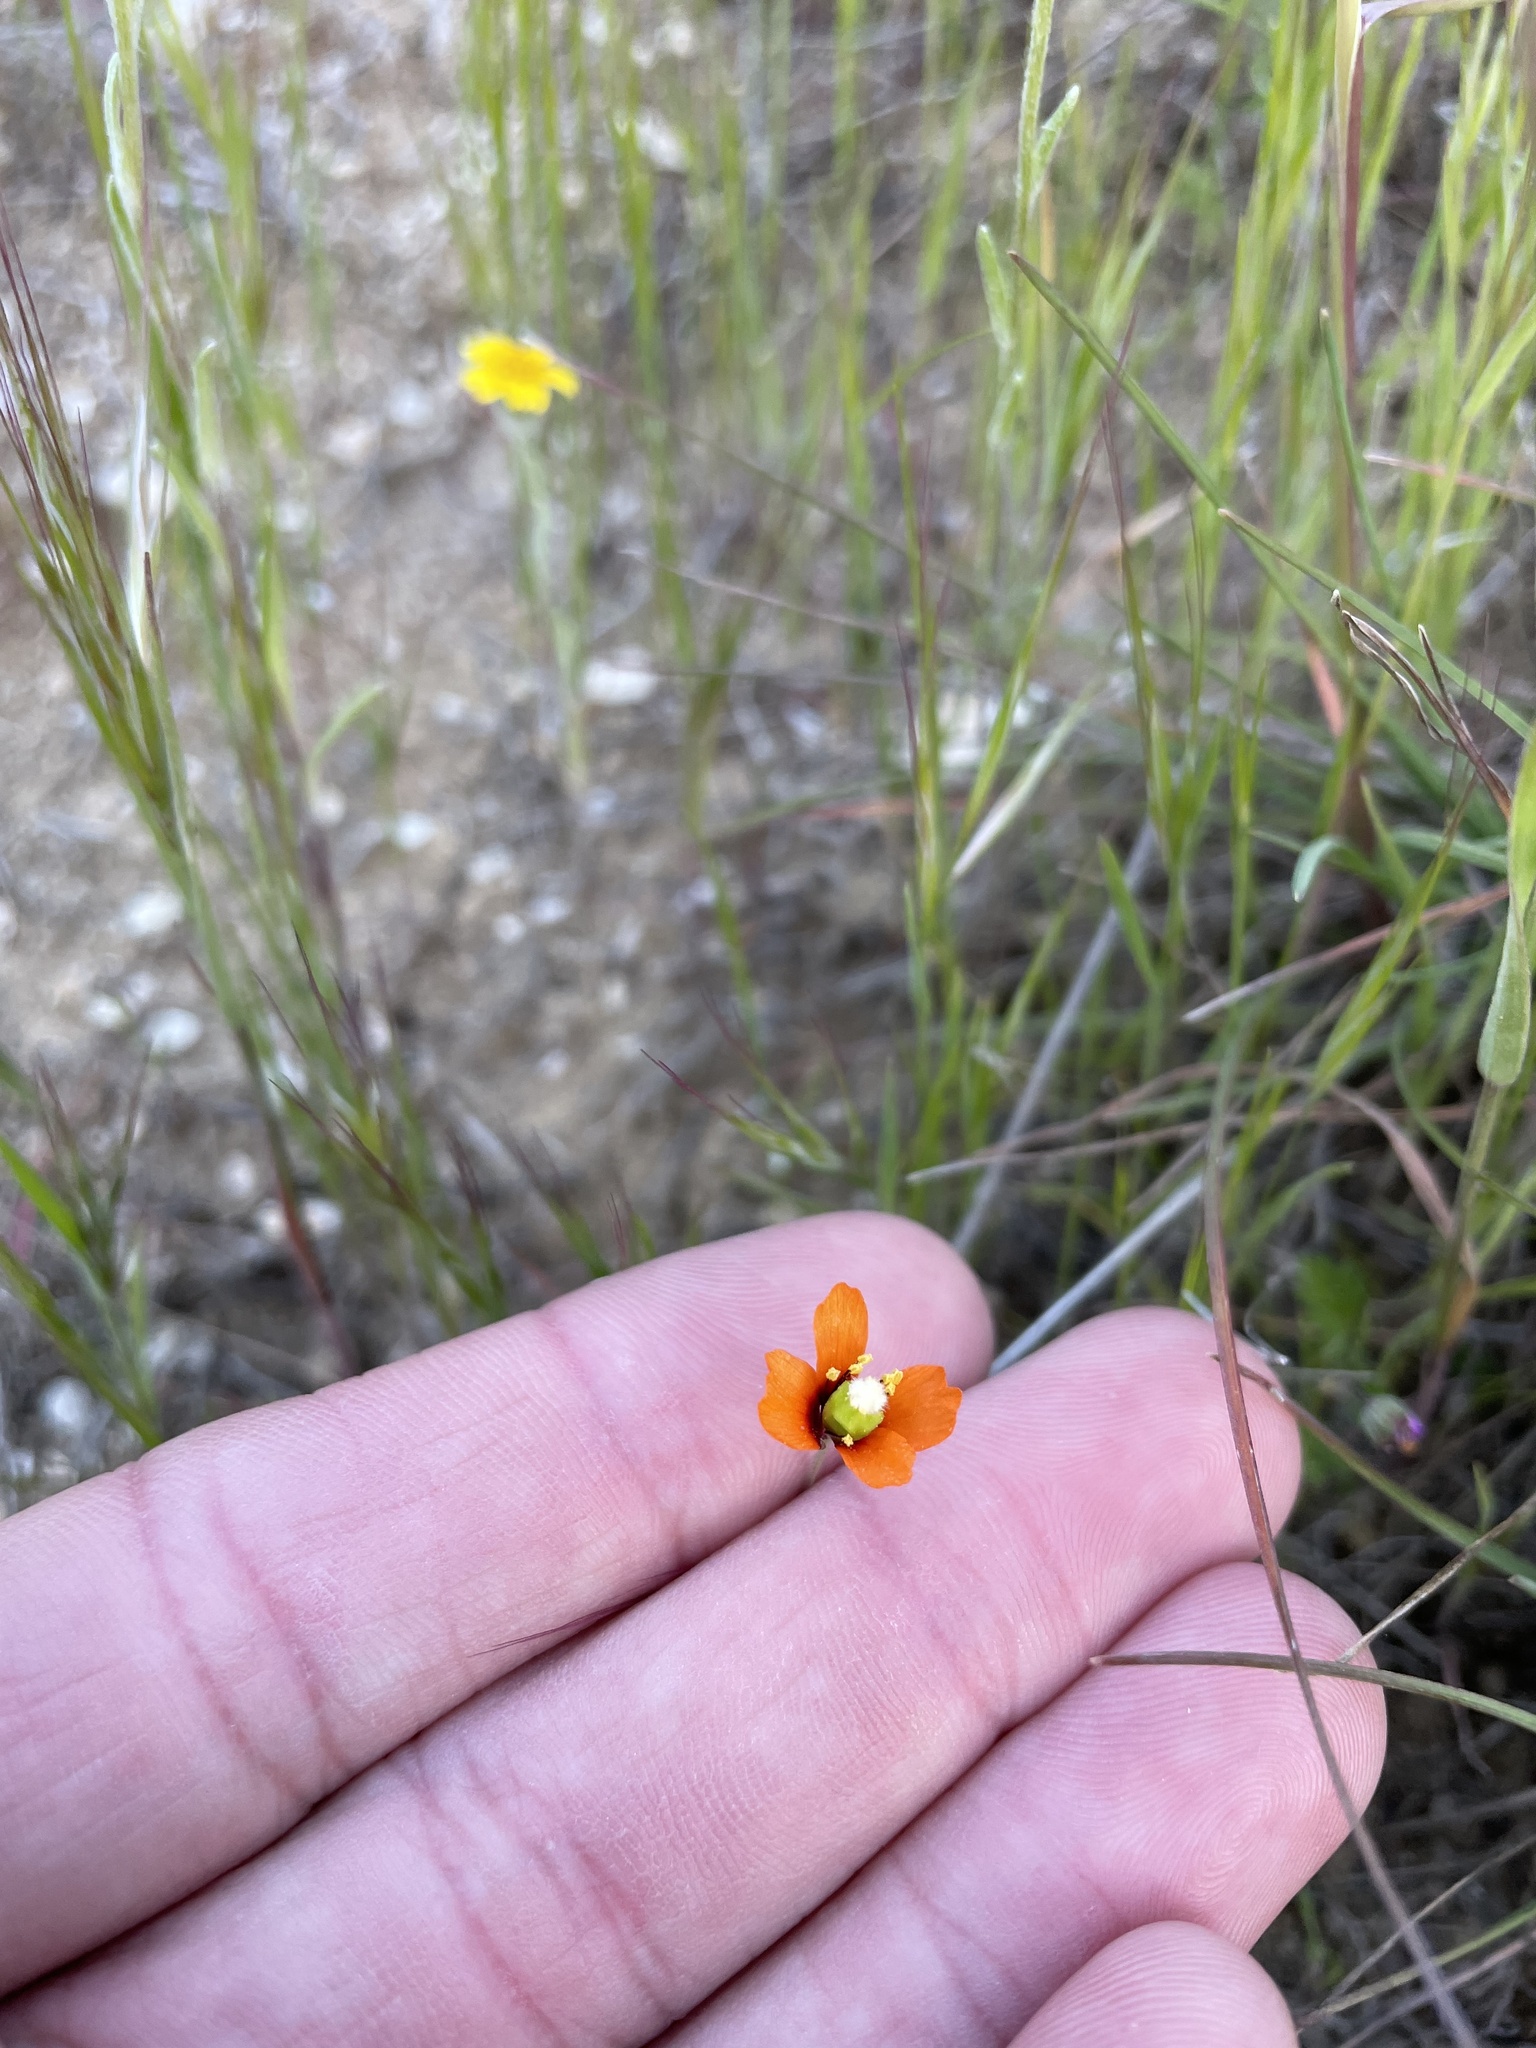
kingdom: Plantae
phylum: Tracheophyta
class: Magnoliopsida
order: Ranunculales
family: Papaveraceae
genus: Stylomecon
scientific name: Stylomecon heterophylla
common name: Flaming-poppy
